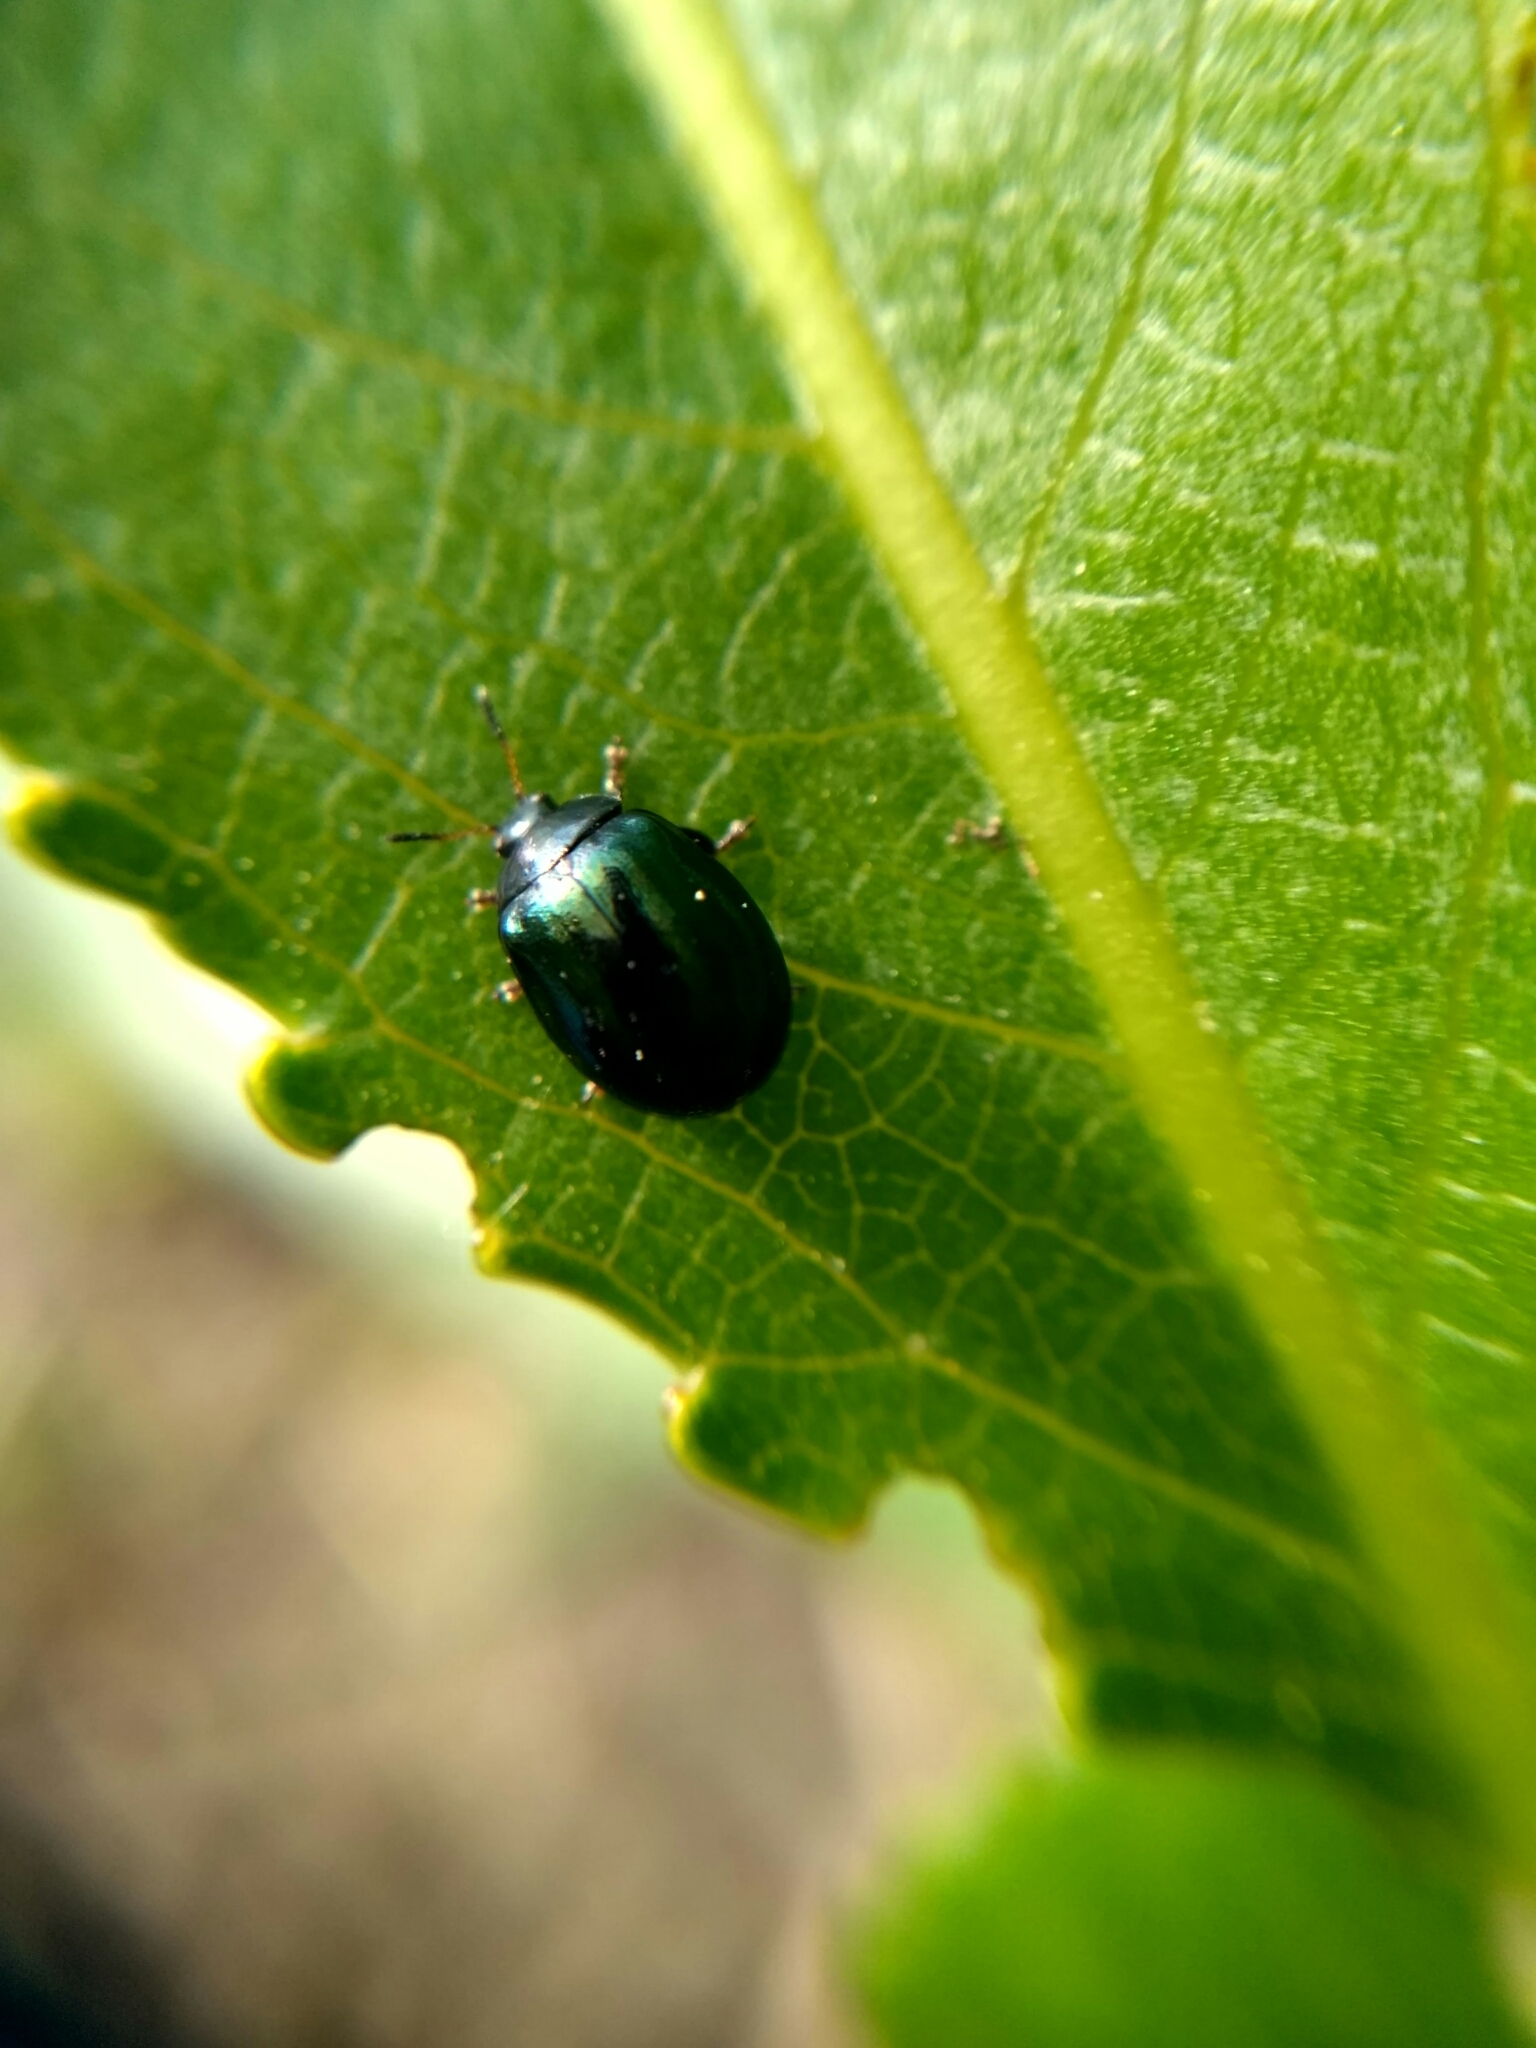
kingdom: Animalia
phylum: Arthropoda
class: Insecta
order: Coleoptera
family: Chrysomelidae
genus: Plagiodera
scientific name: Plagiodera versicolora
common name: Imported willow leaf beetle
